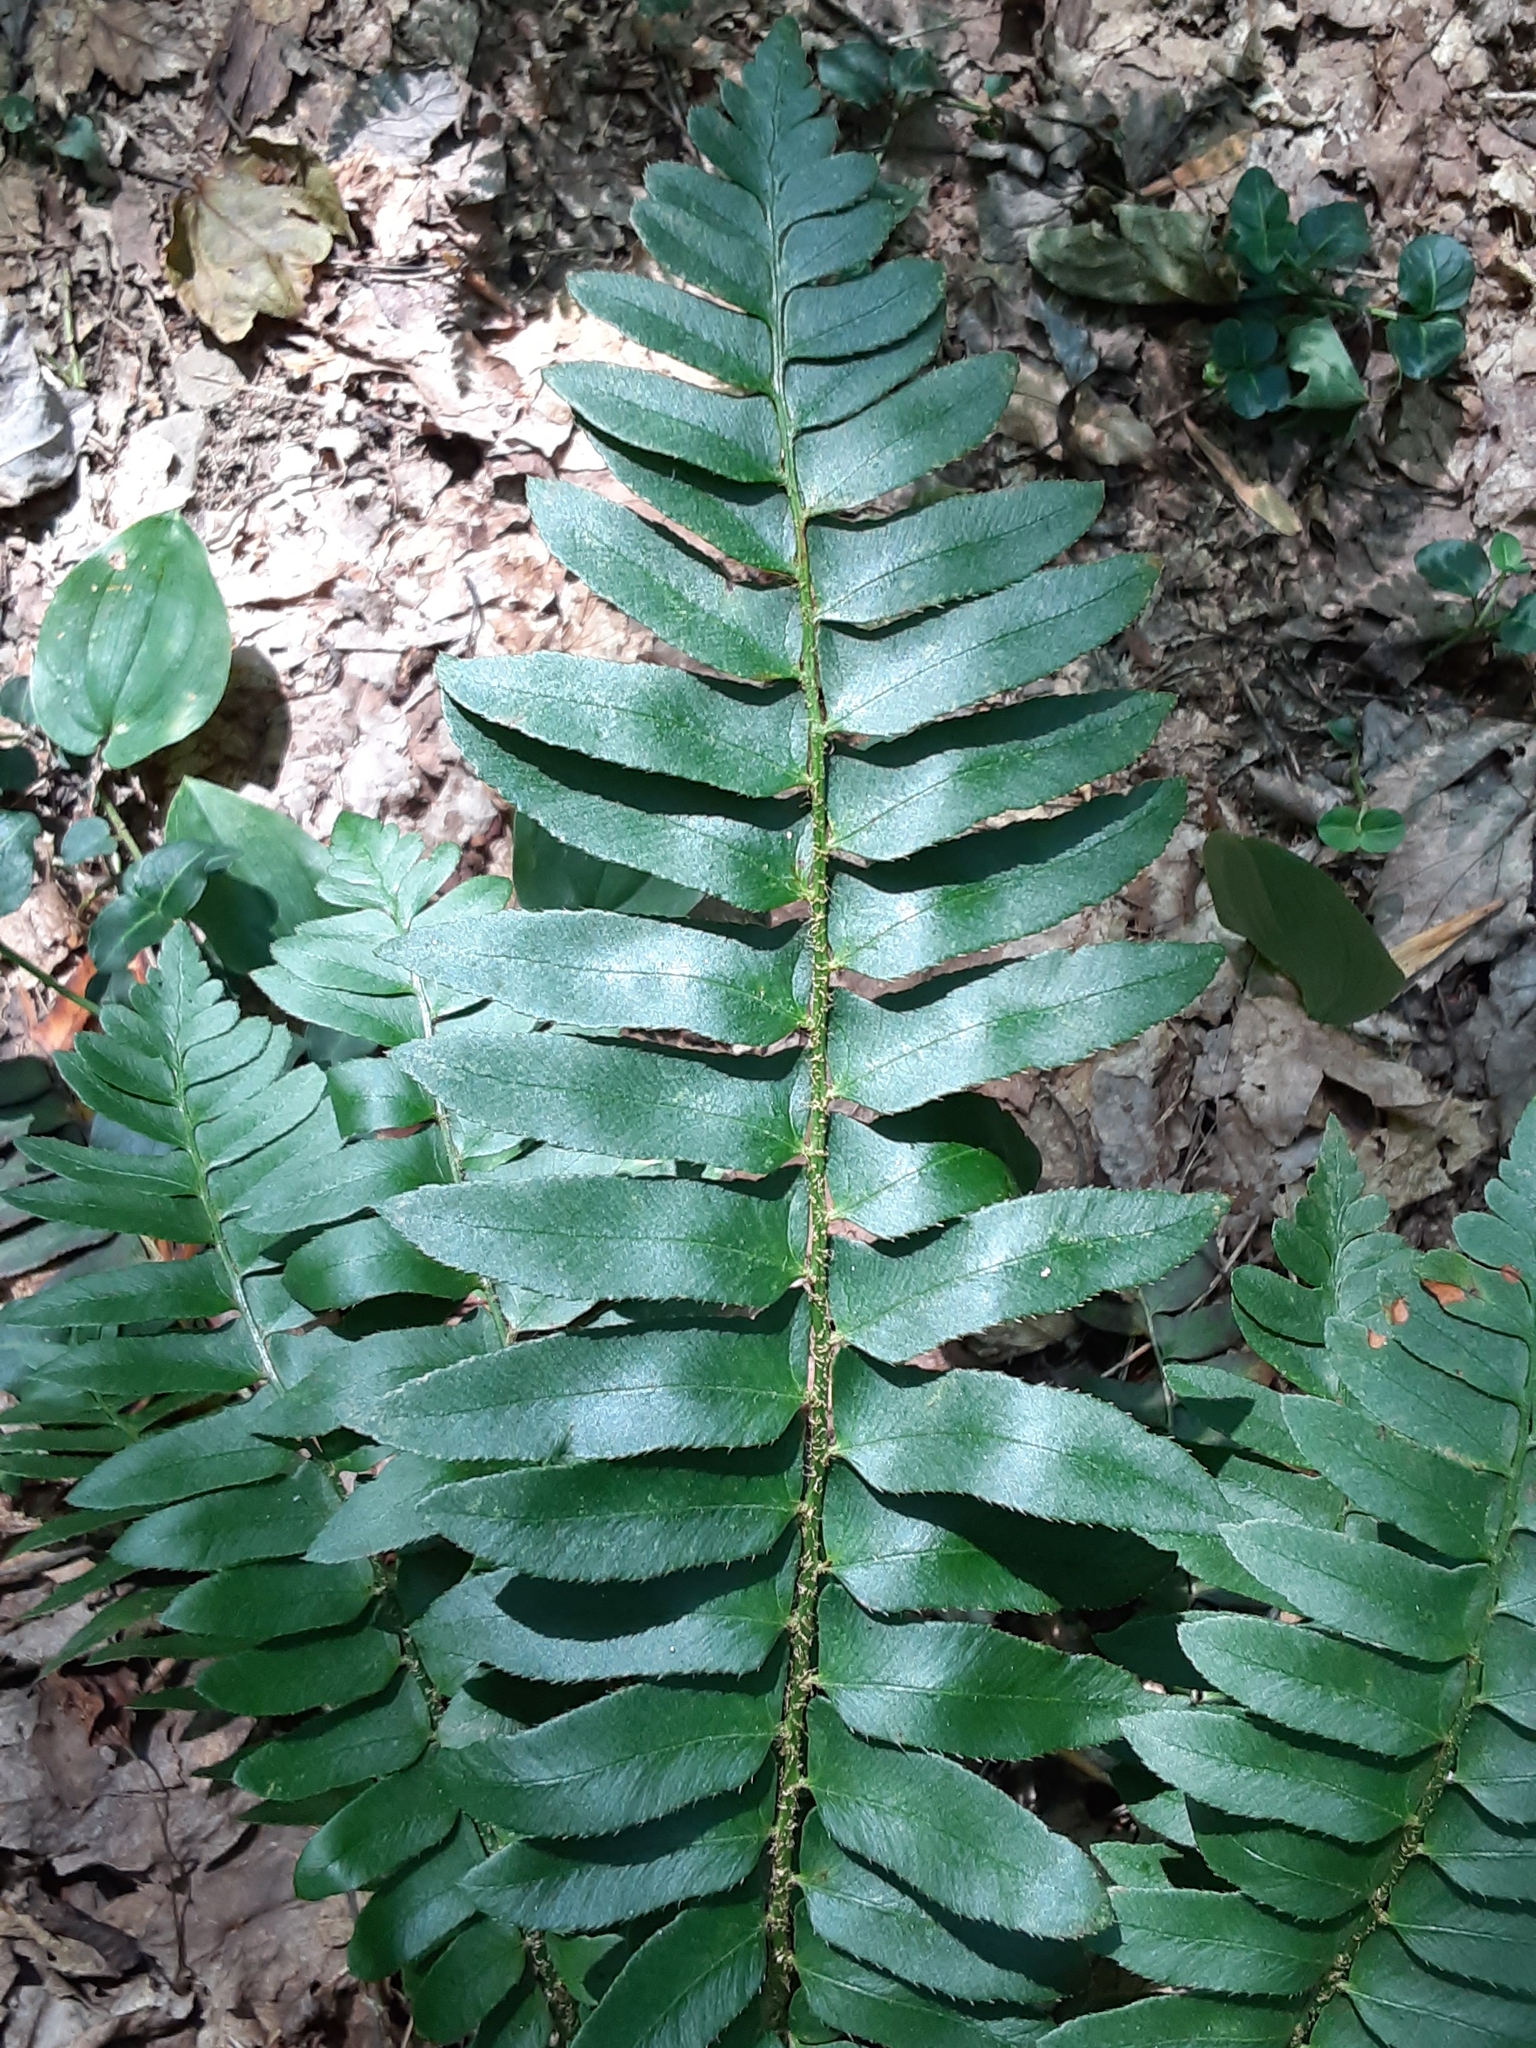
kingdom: Plantae
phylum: Tracheophyta
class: Polypodiopsida
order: Polypodiales
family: Dryopteridaceae
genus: Polystichum
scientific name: Polystichum acrostichoides
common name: Christmas fern
